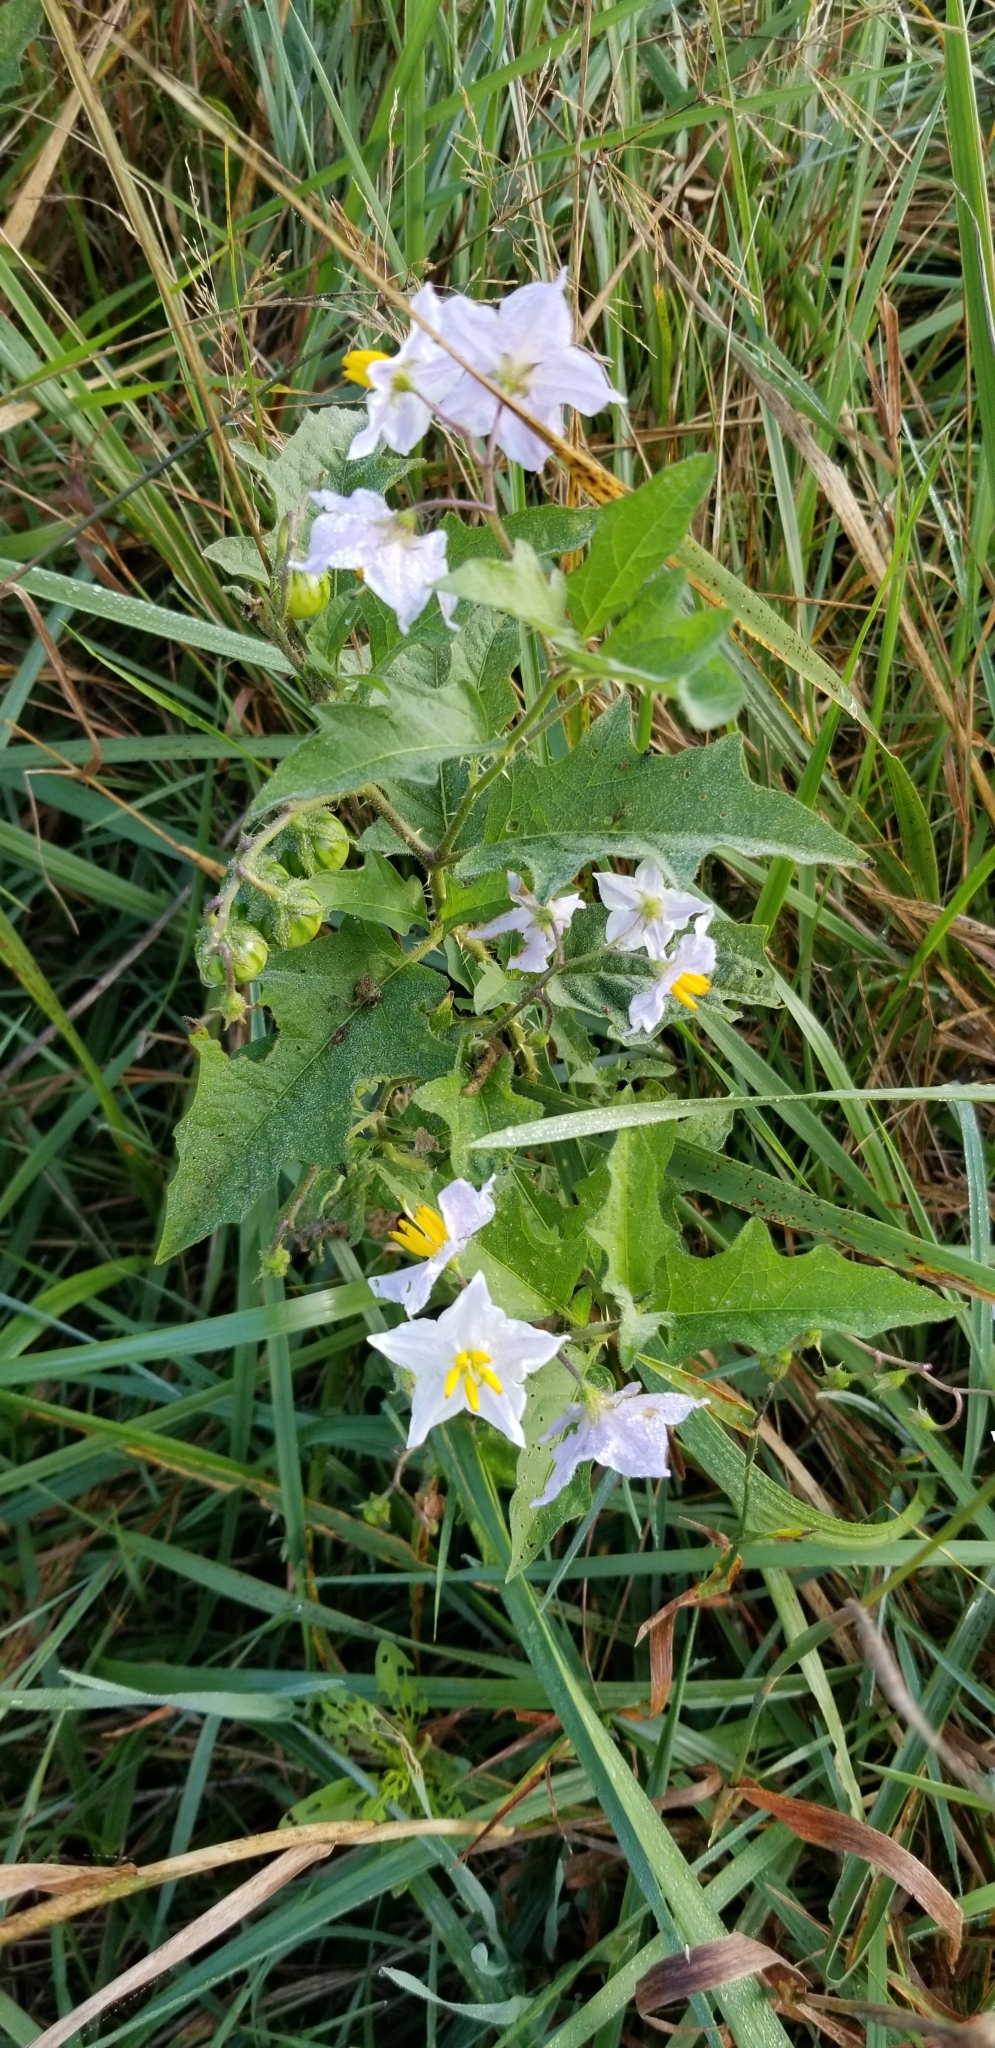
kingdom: Plantae
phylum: Tracheophyta
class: Magnoliopsida
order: Solanales
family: Solanaceae
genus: Solanum
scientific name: Solanum carolinense
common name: Horse-nettle
